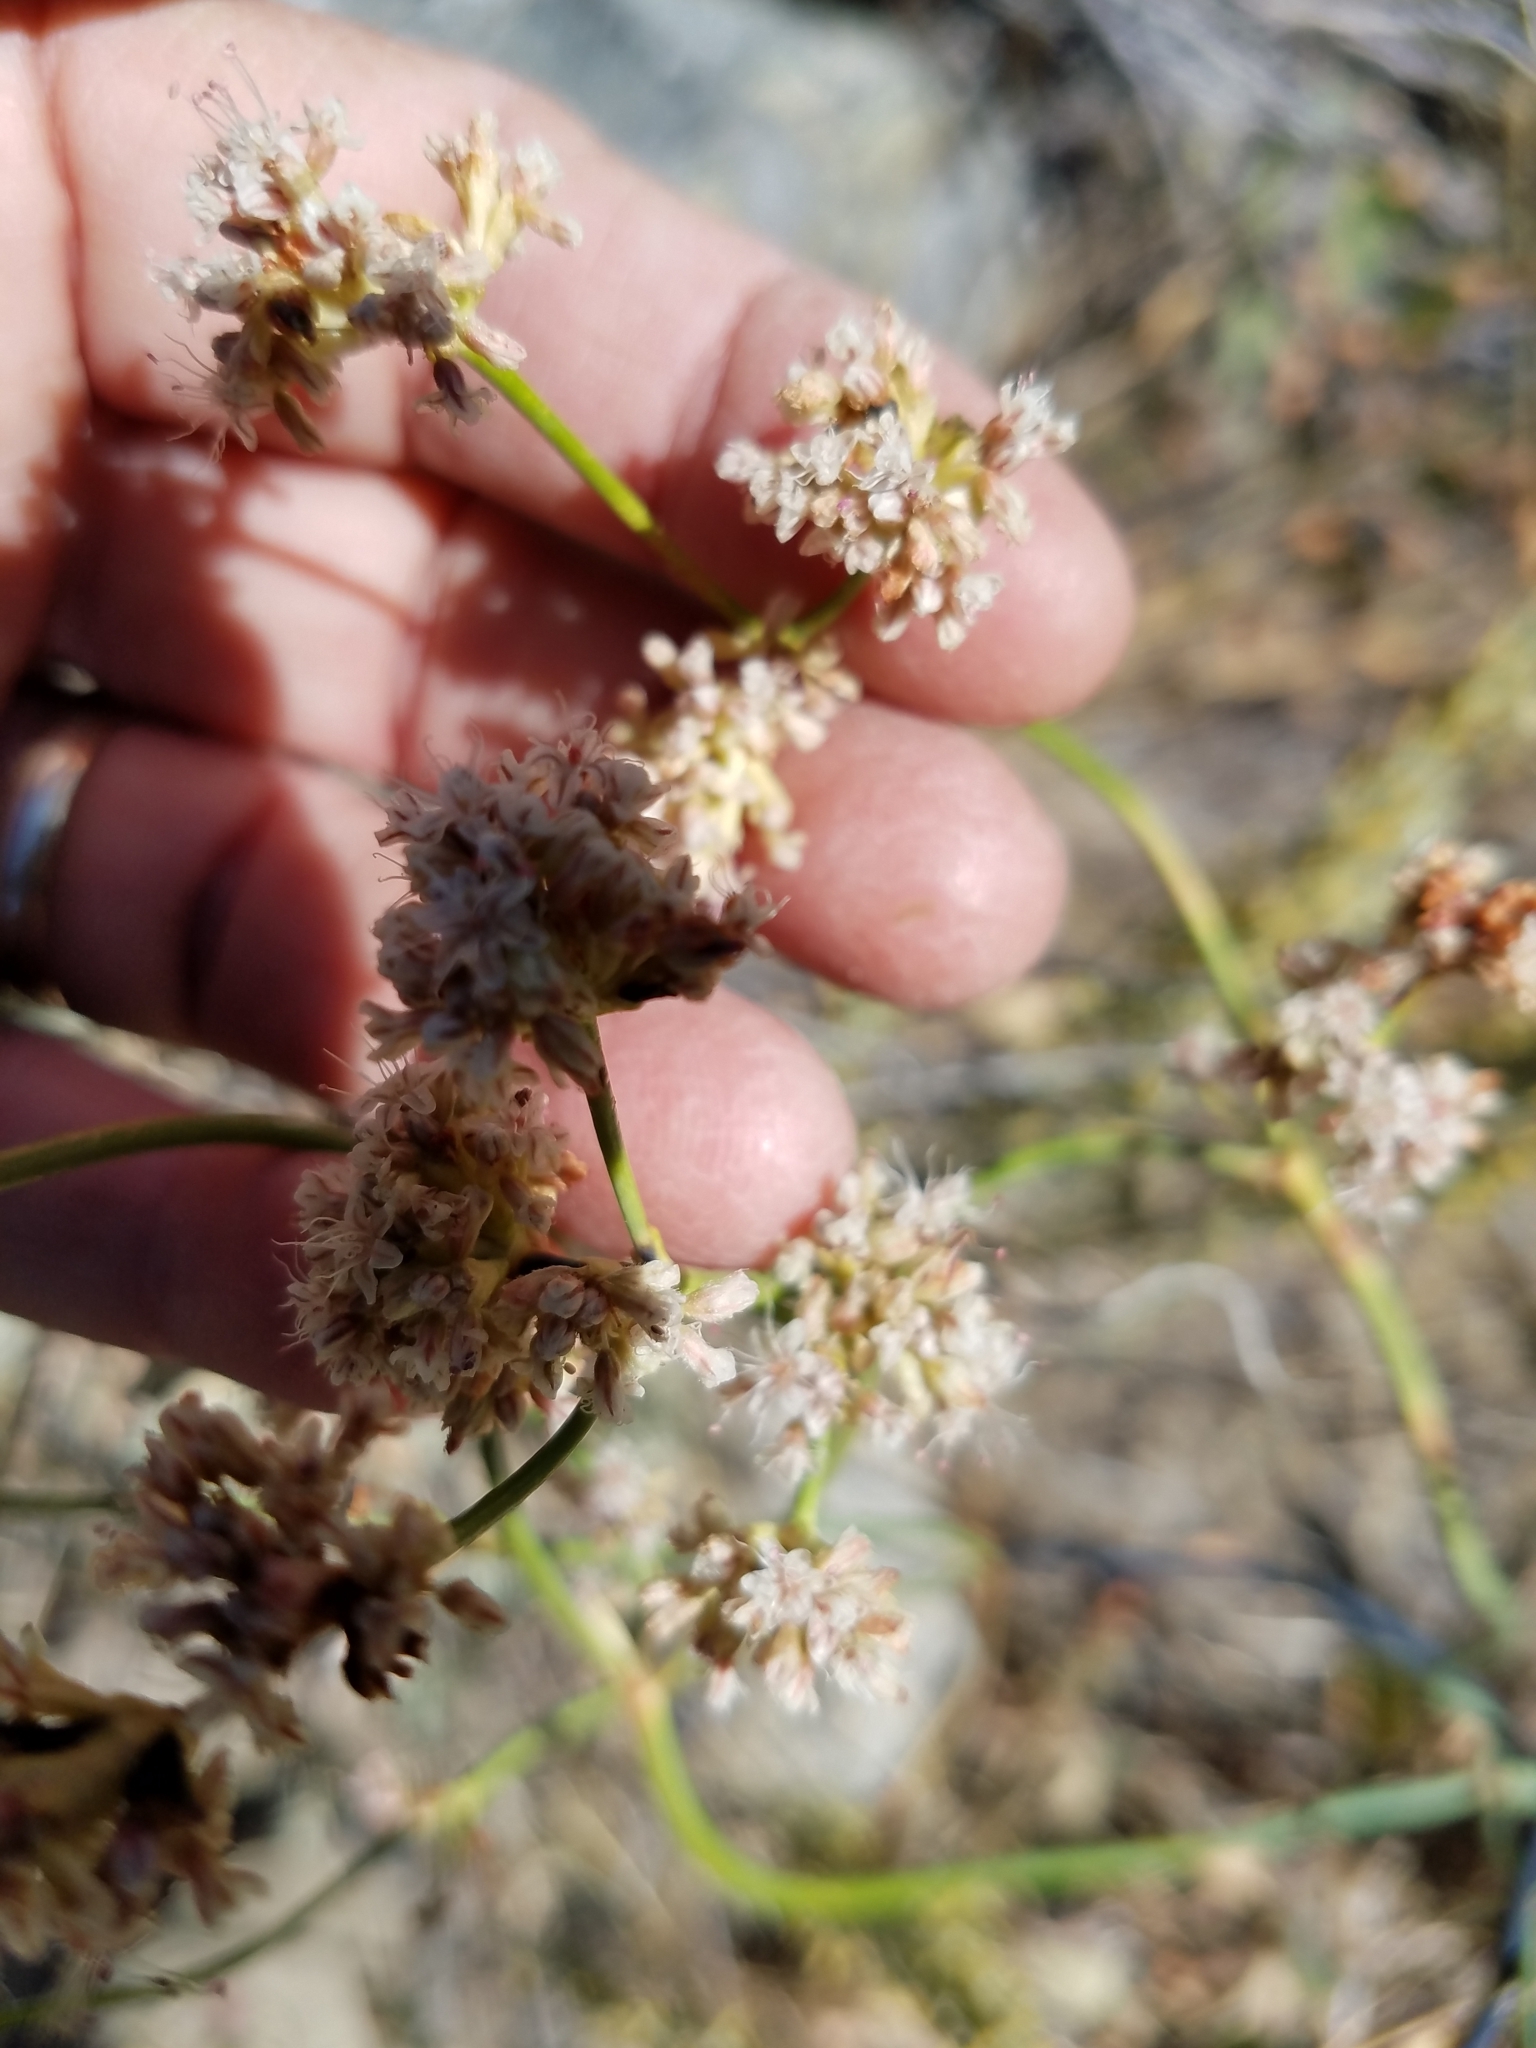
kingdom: Plantae
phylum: Tracheophyta
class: Magnoliopsida
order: Caryophyllales
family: Polygonaceae
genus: Eriogonum
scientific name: Eriogonum elatum
